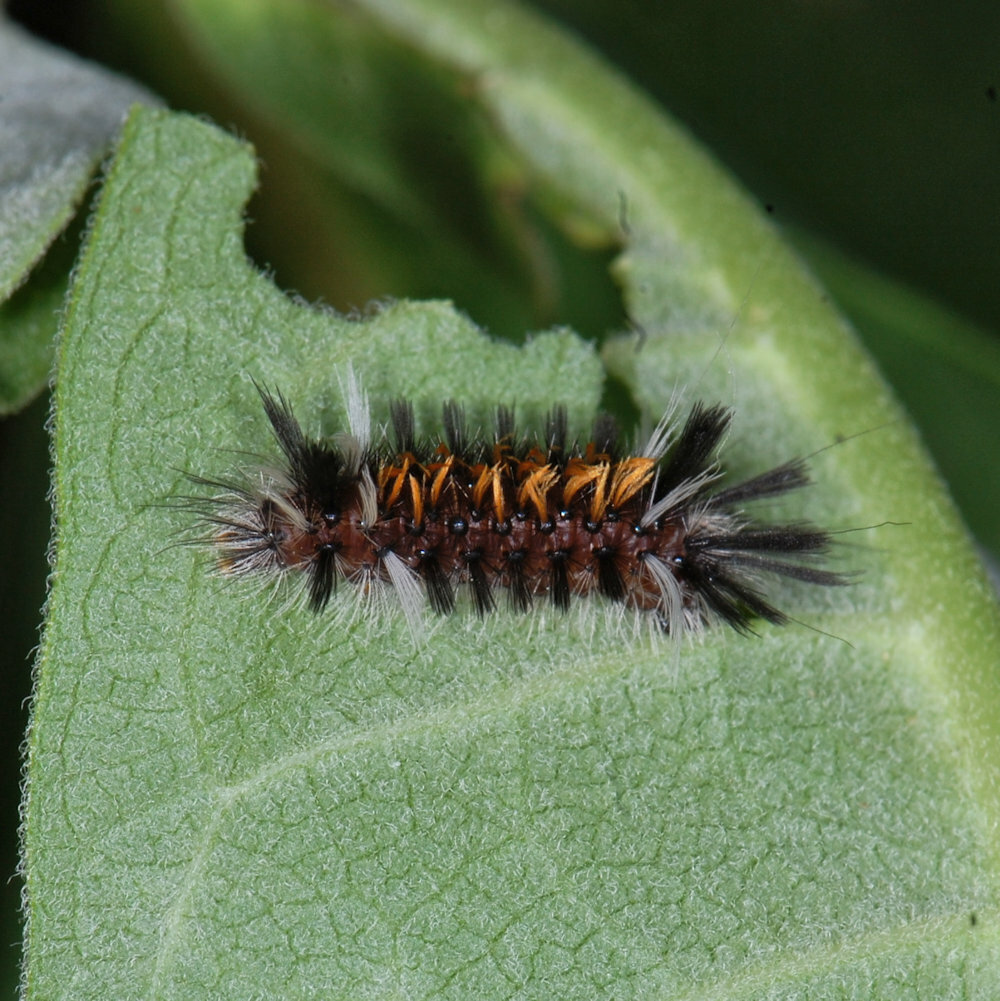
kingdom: Animalia
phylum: Arthropoda
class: Insecta
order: Lepidoptera
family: Erebidae
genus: Euchaetes
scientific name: Euchaetes egle
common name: Milkweed tussock moth
